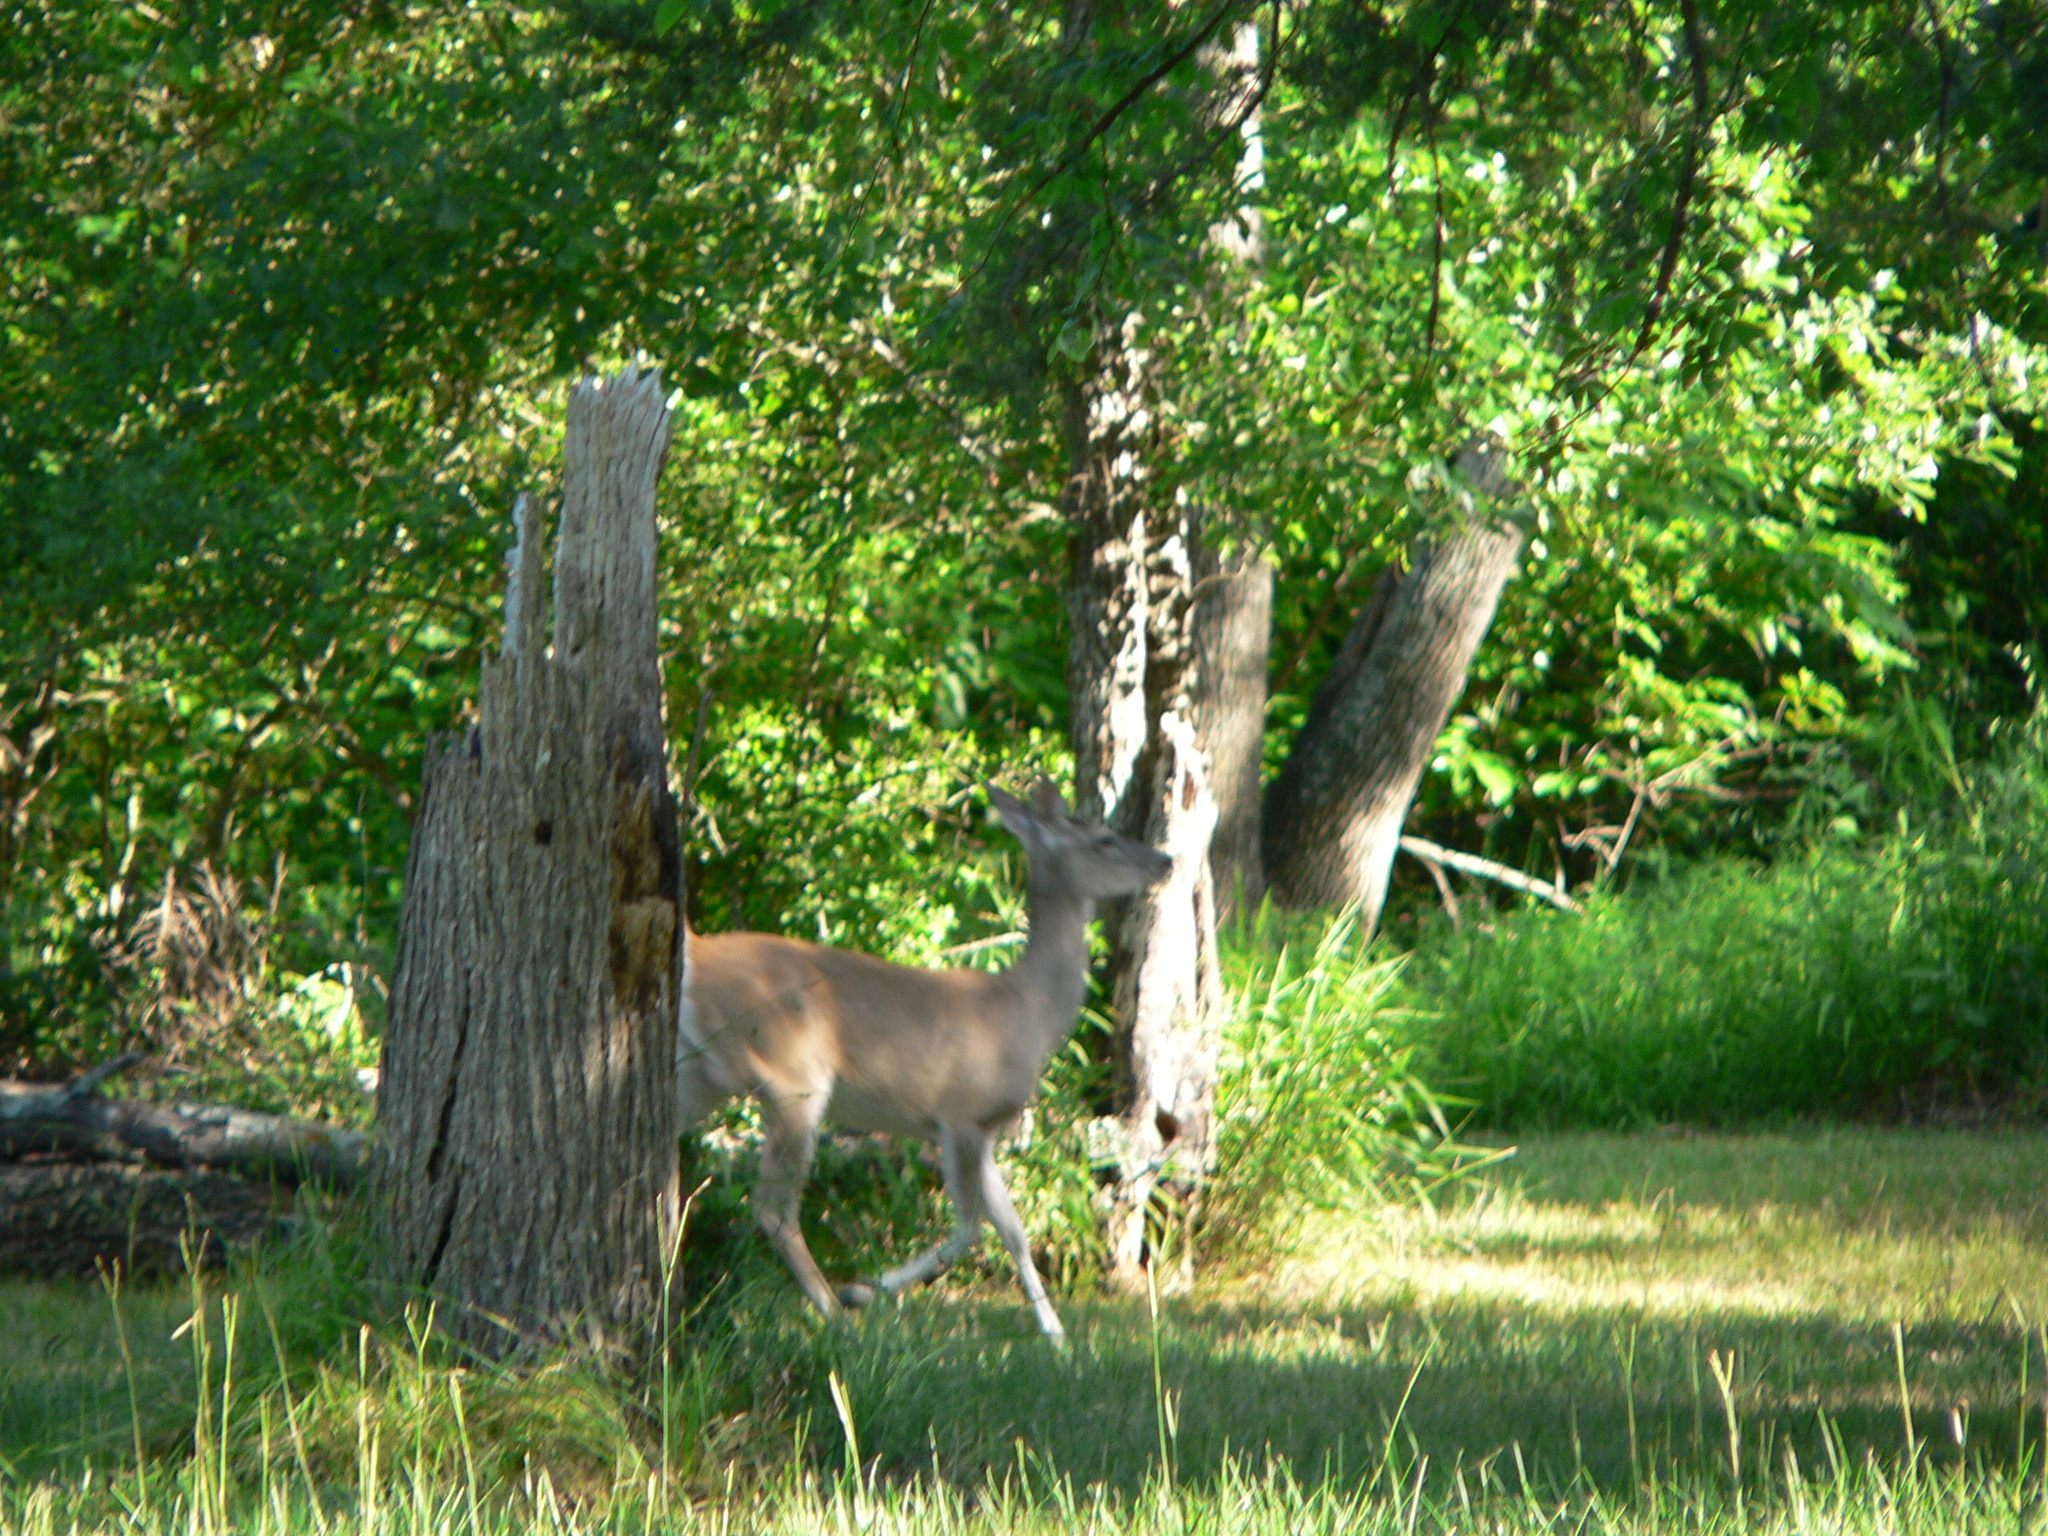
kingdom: Animalia
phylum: Chordata
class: Mammalia
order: Artiodactyla
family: Cervidae
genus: Odocoileus
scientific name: Odocoileus virginianus
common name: White-tailed deer
